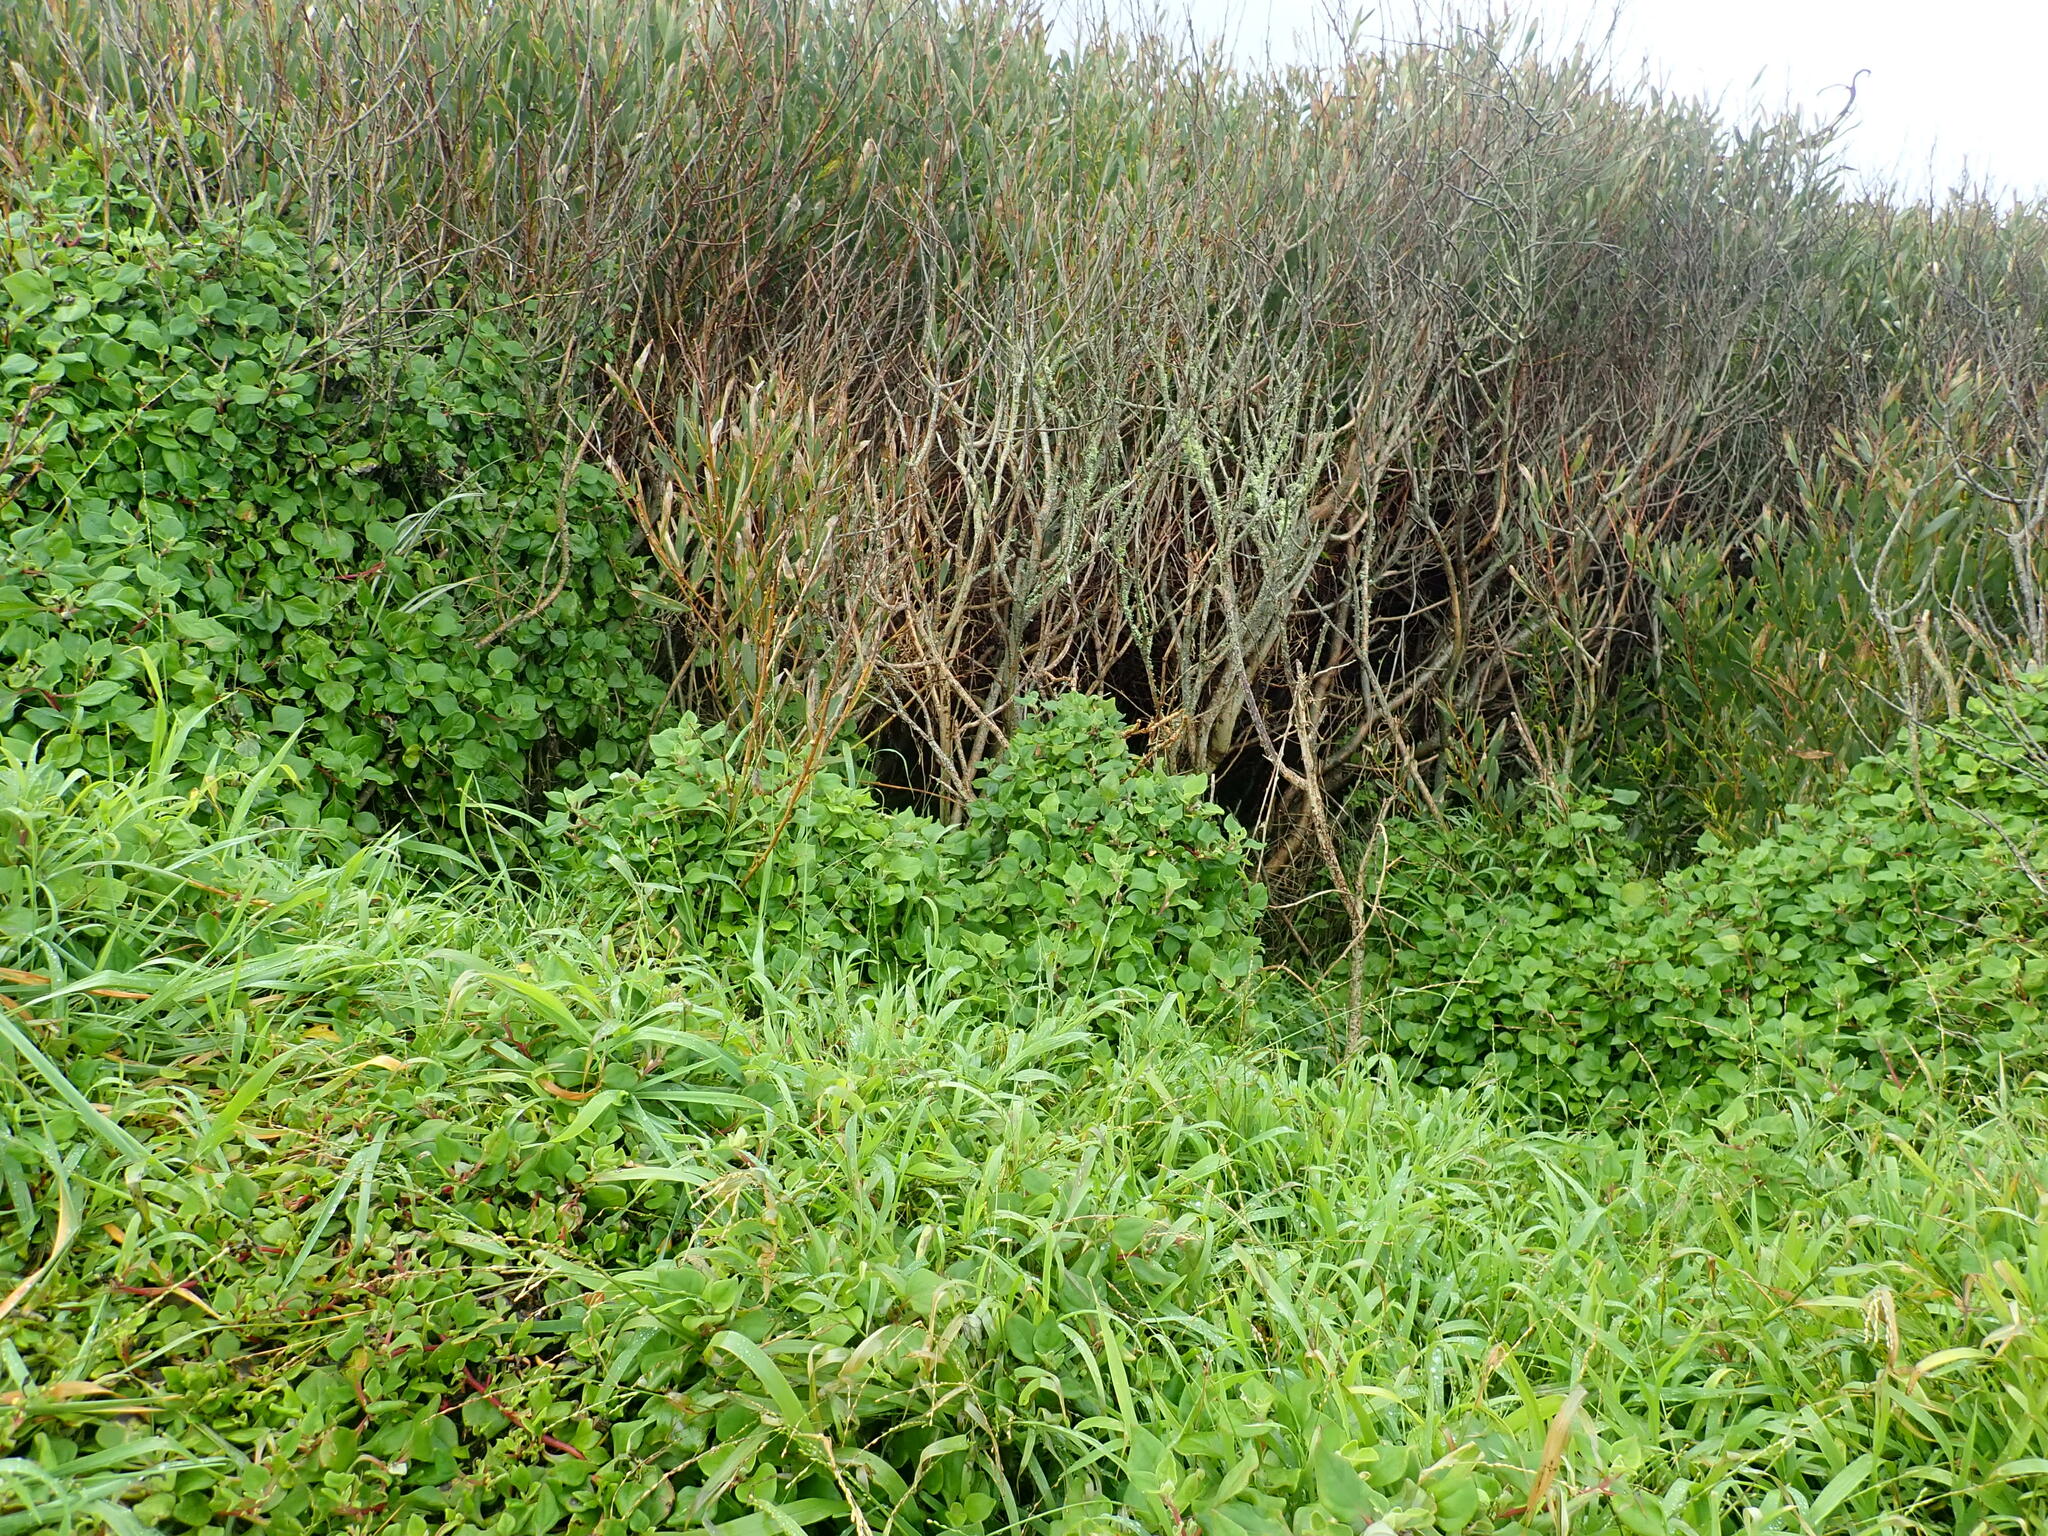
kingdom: Plantae
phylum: Tracheophyta
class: Magnoliopsida
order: Caryophyllales
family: Aizoaceae
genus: Tetragonia
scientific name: Tetragonia implexicoma
